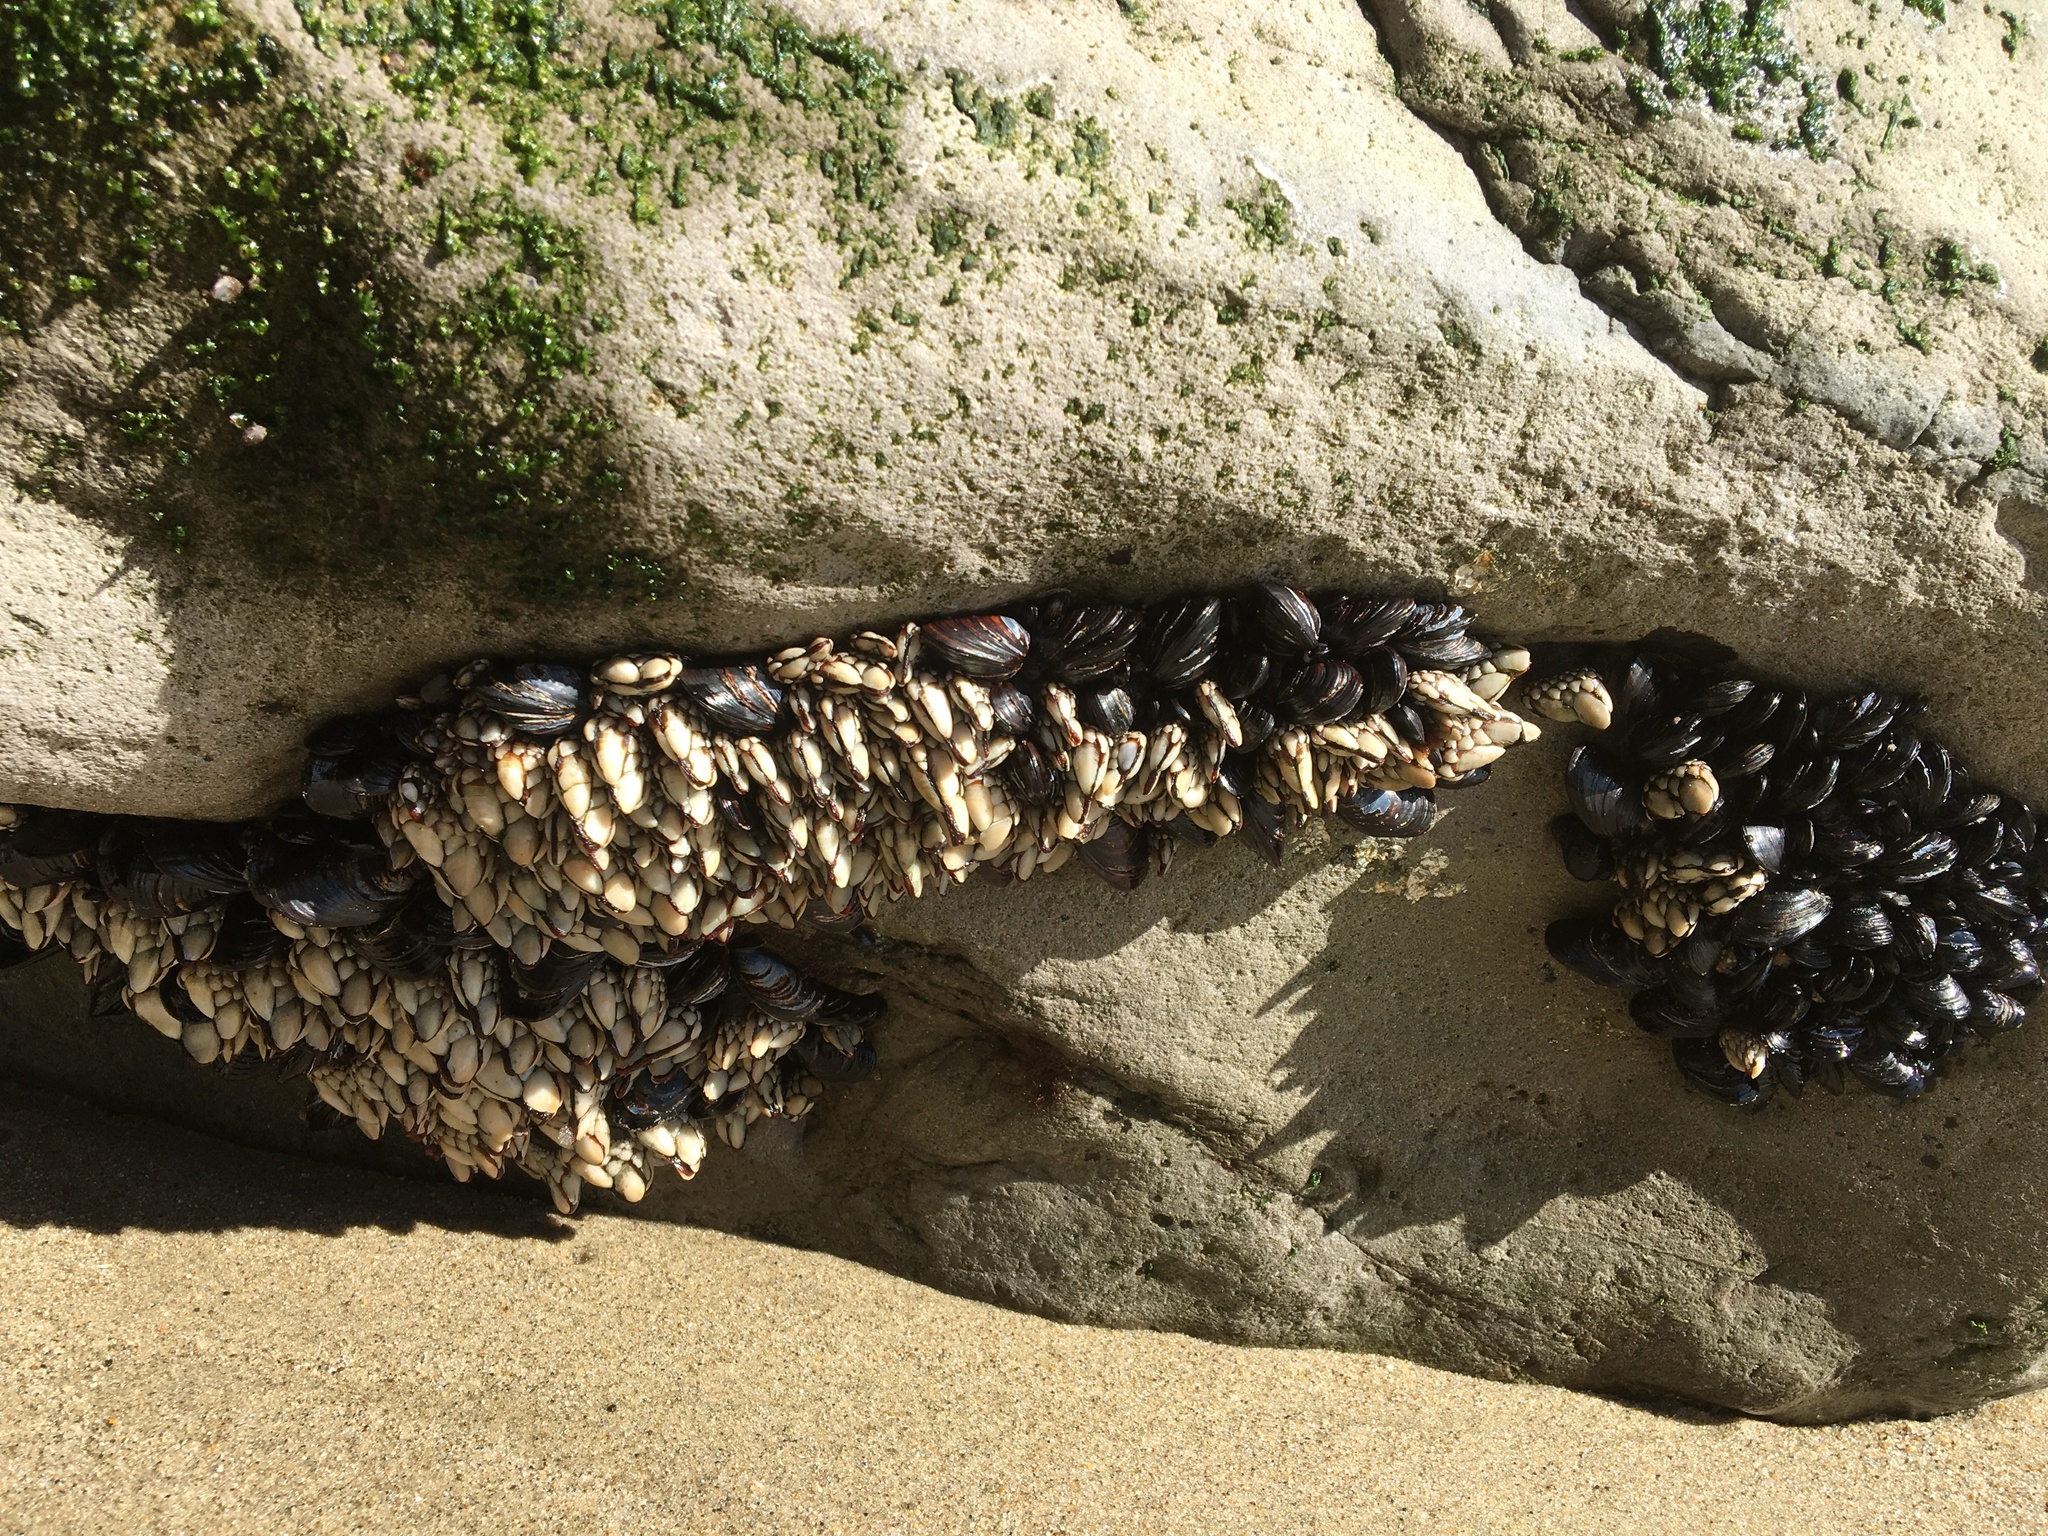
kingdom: Animalia
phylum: Arthropoda
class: Maxillopoda
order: Pedunculata
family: Pollicipedidae
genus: Pollicipes
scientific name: Pollicipes polymerus
